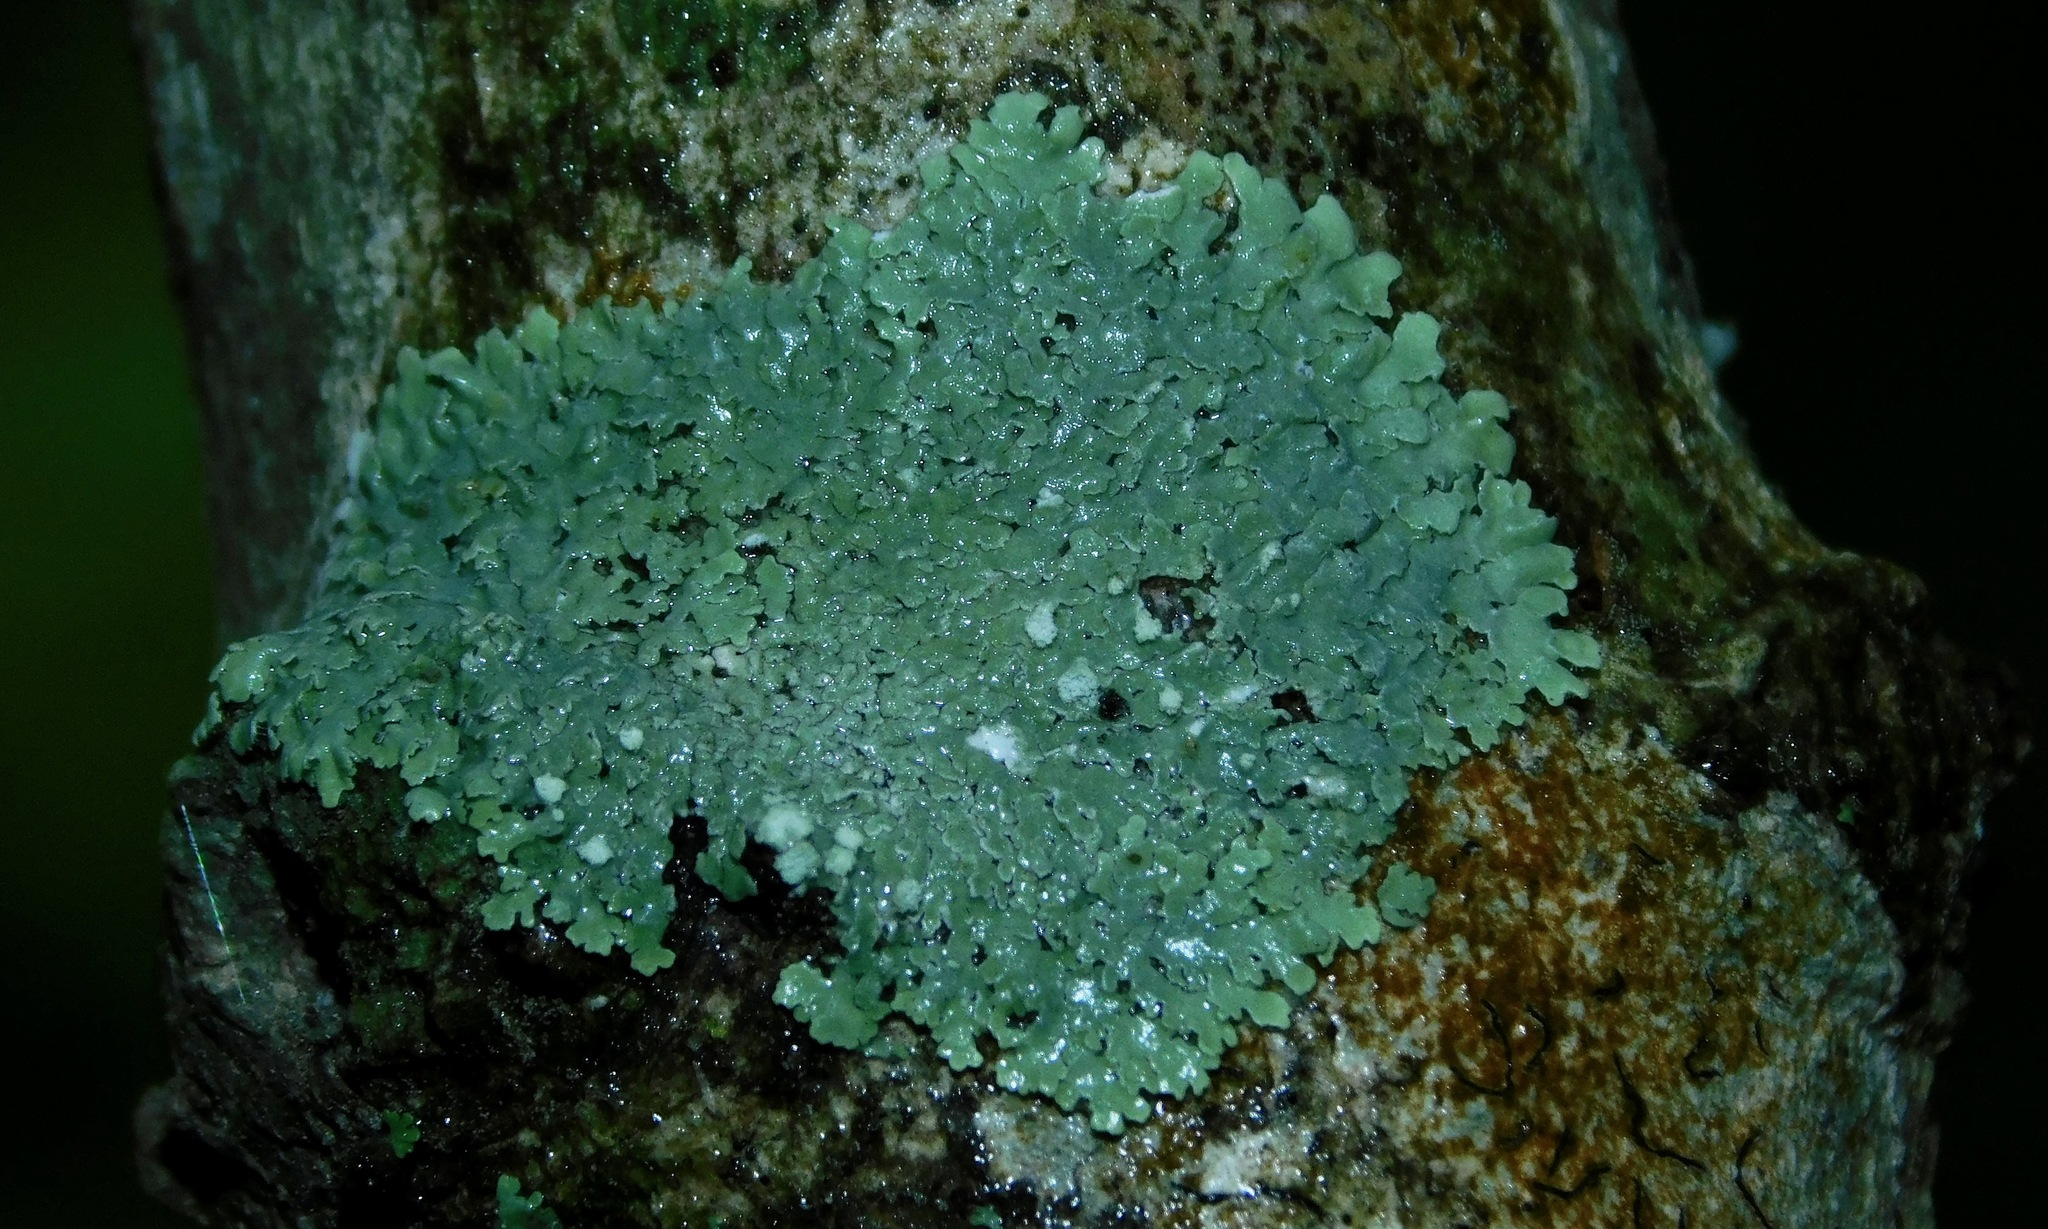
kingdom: Fungi
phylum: Ascomycota
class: Lecanoromycetes
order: Caliciales
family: Physciaceae
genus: Physcia
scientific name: Physcia americana
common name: American rosette lichen
